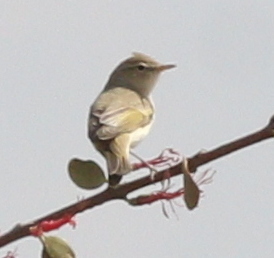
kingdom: Animalia
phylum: Chordata
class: Aves
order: Passeriformes
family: Phylloscopidae
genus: Phylloscopus
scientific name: Phylloscopus orientalis
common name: Eastern bonelli's warbler
